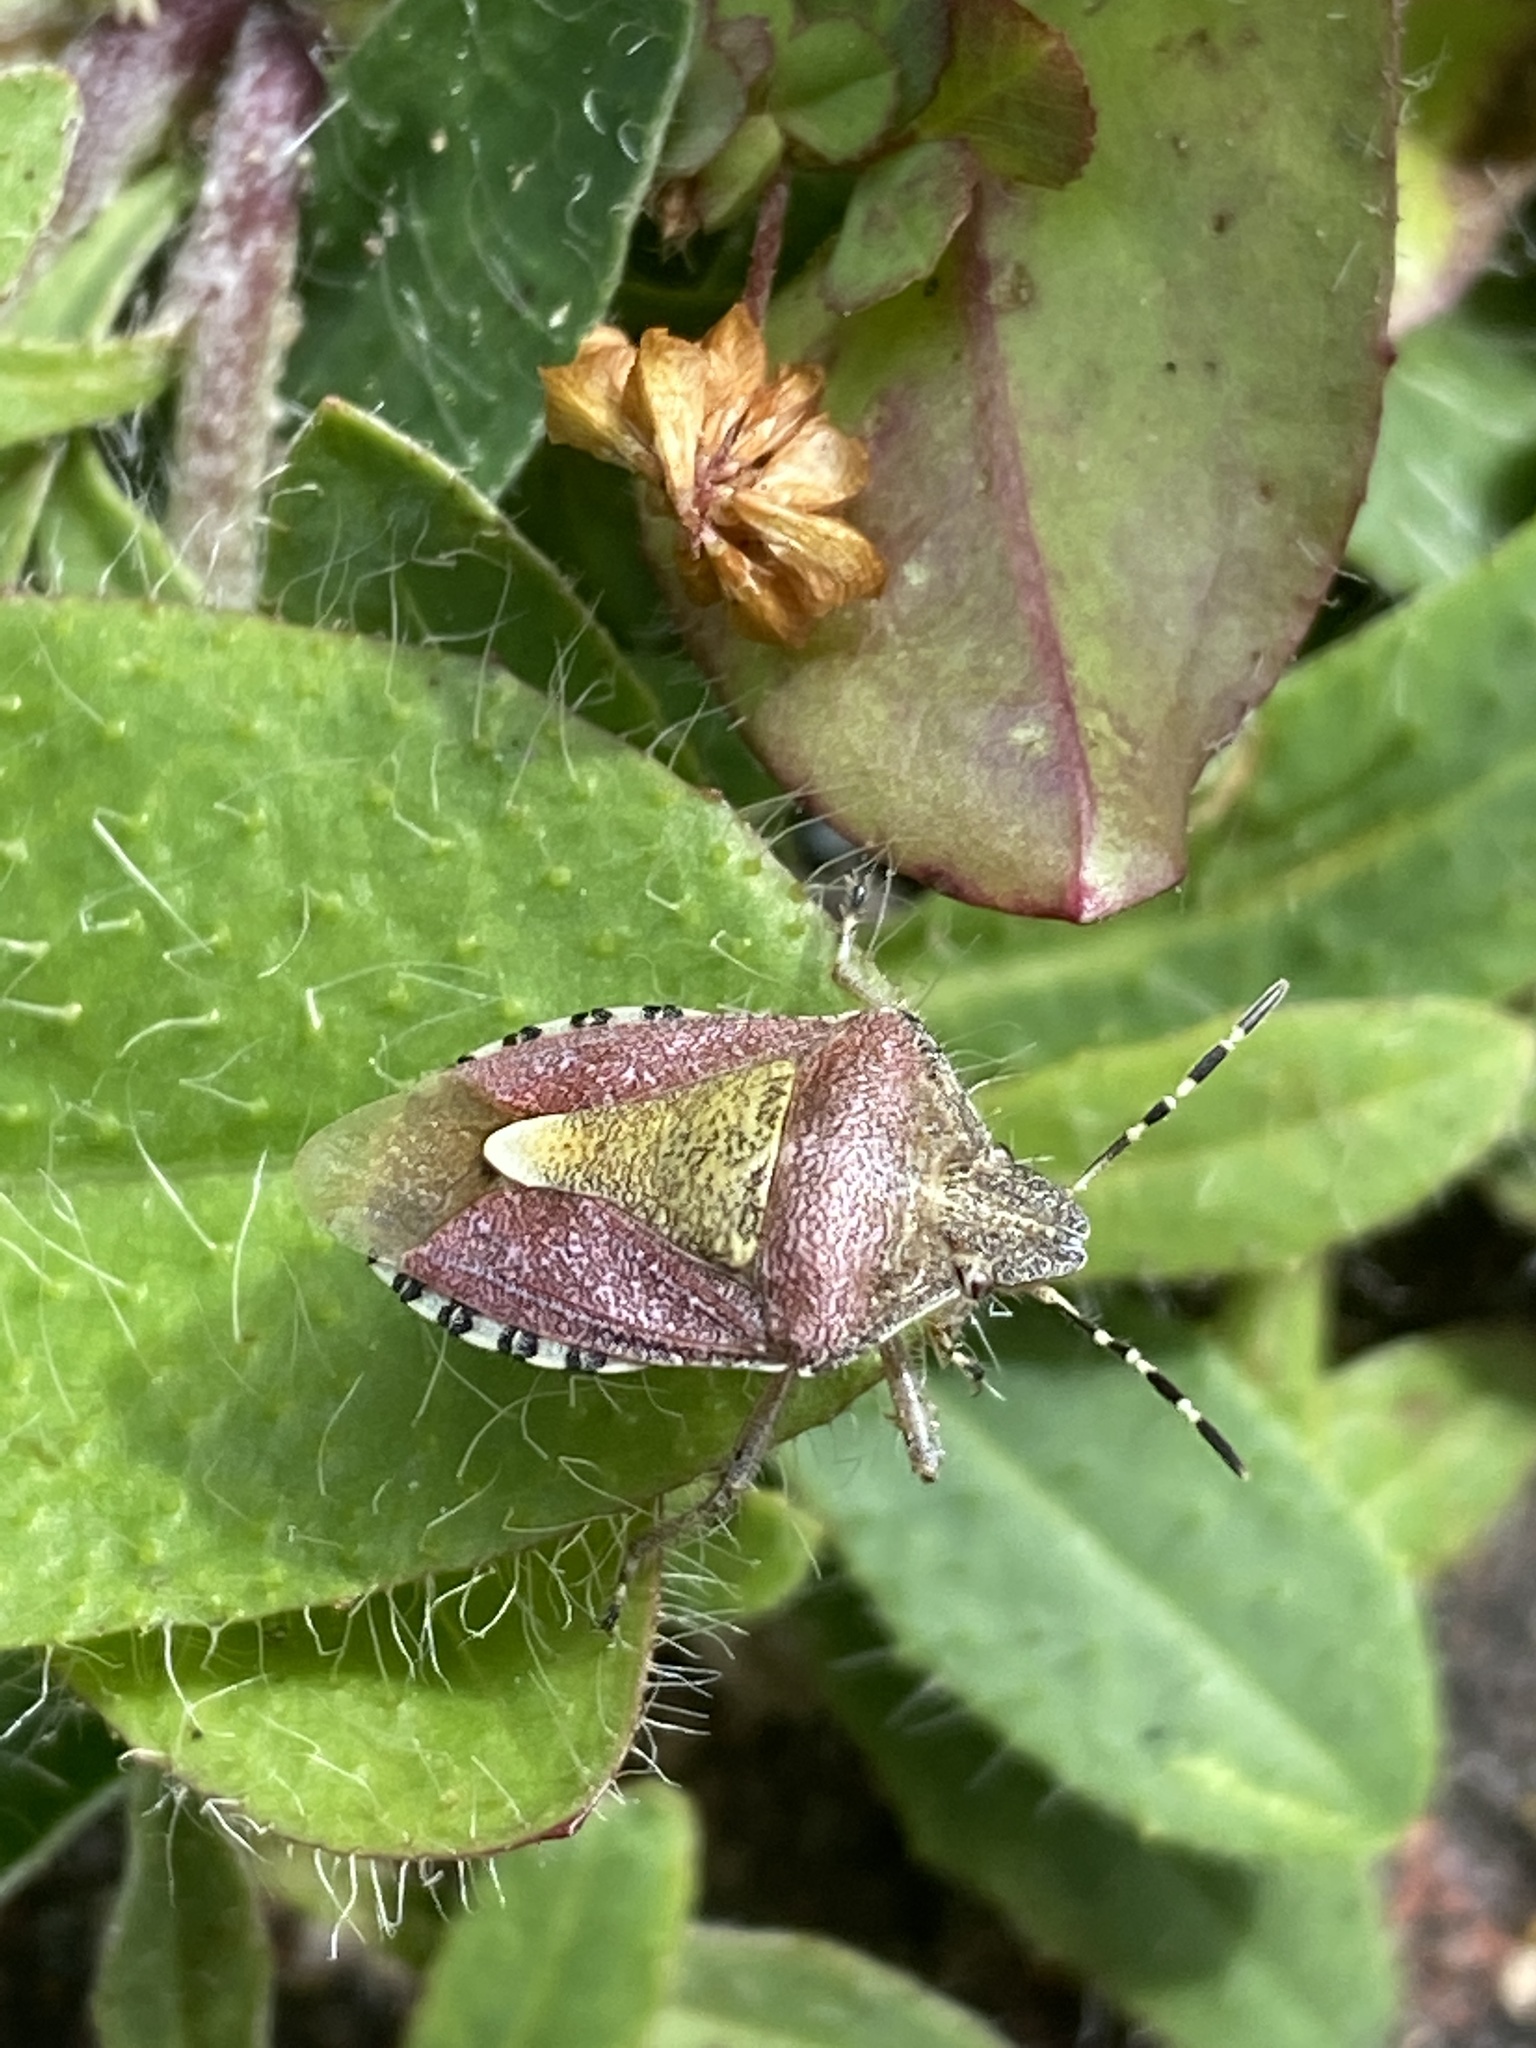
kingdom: Animalia
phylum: Arthropoda
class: Insecta
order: Hemiptera
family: Pentatomidae
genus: Dolycoris
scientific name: Dolycoris baccarum
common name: Sloe bug
